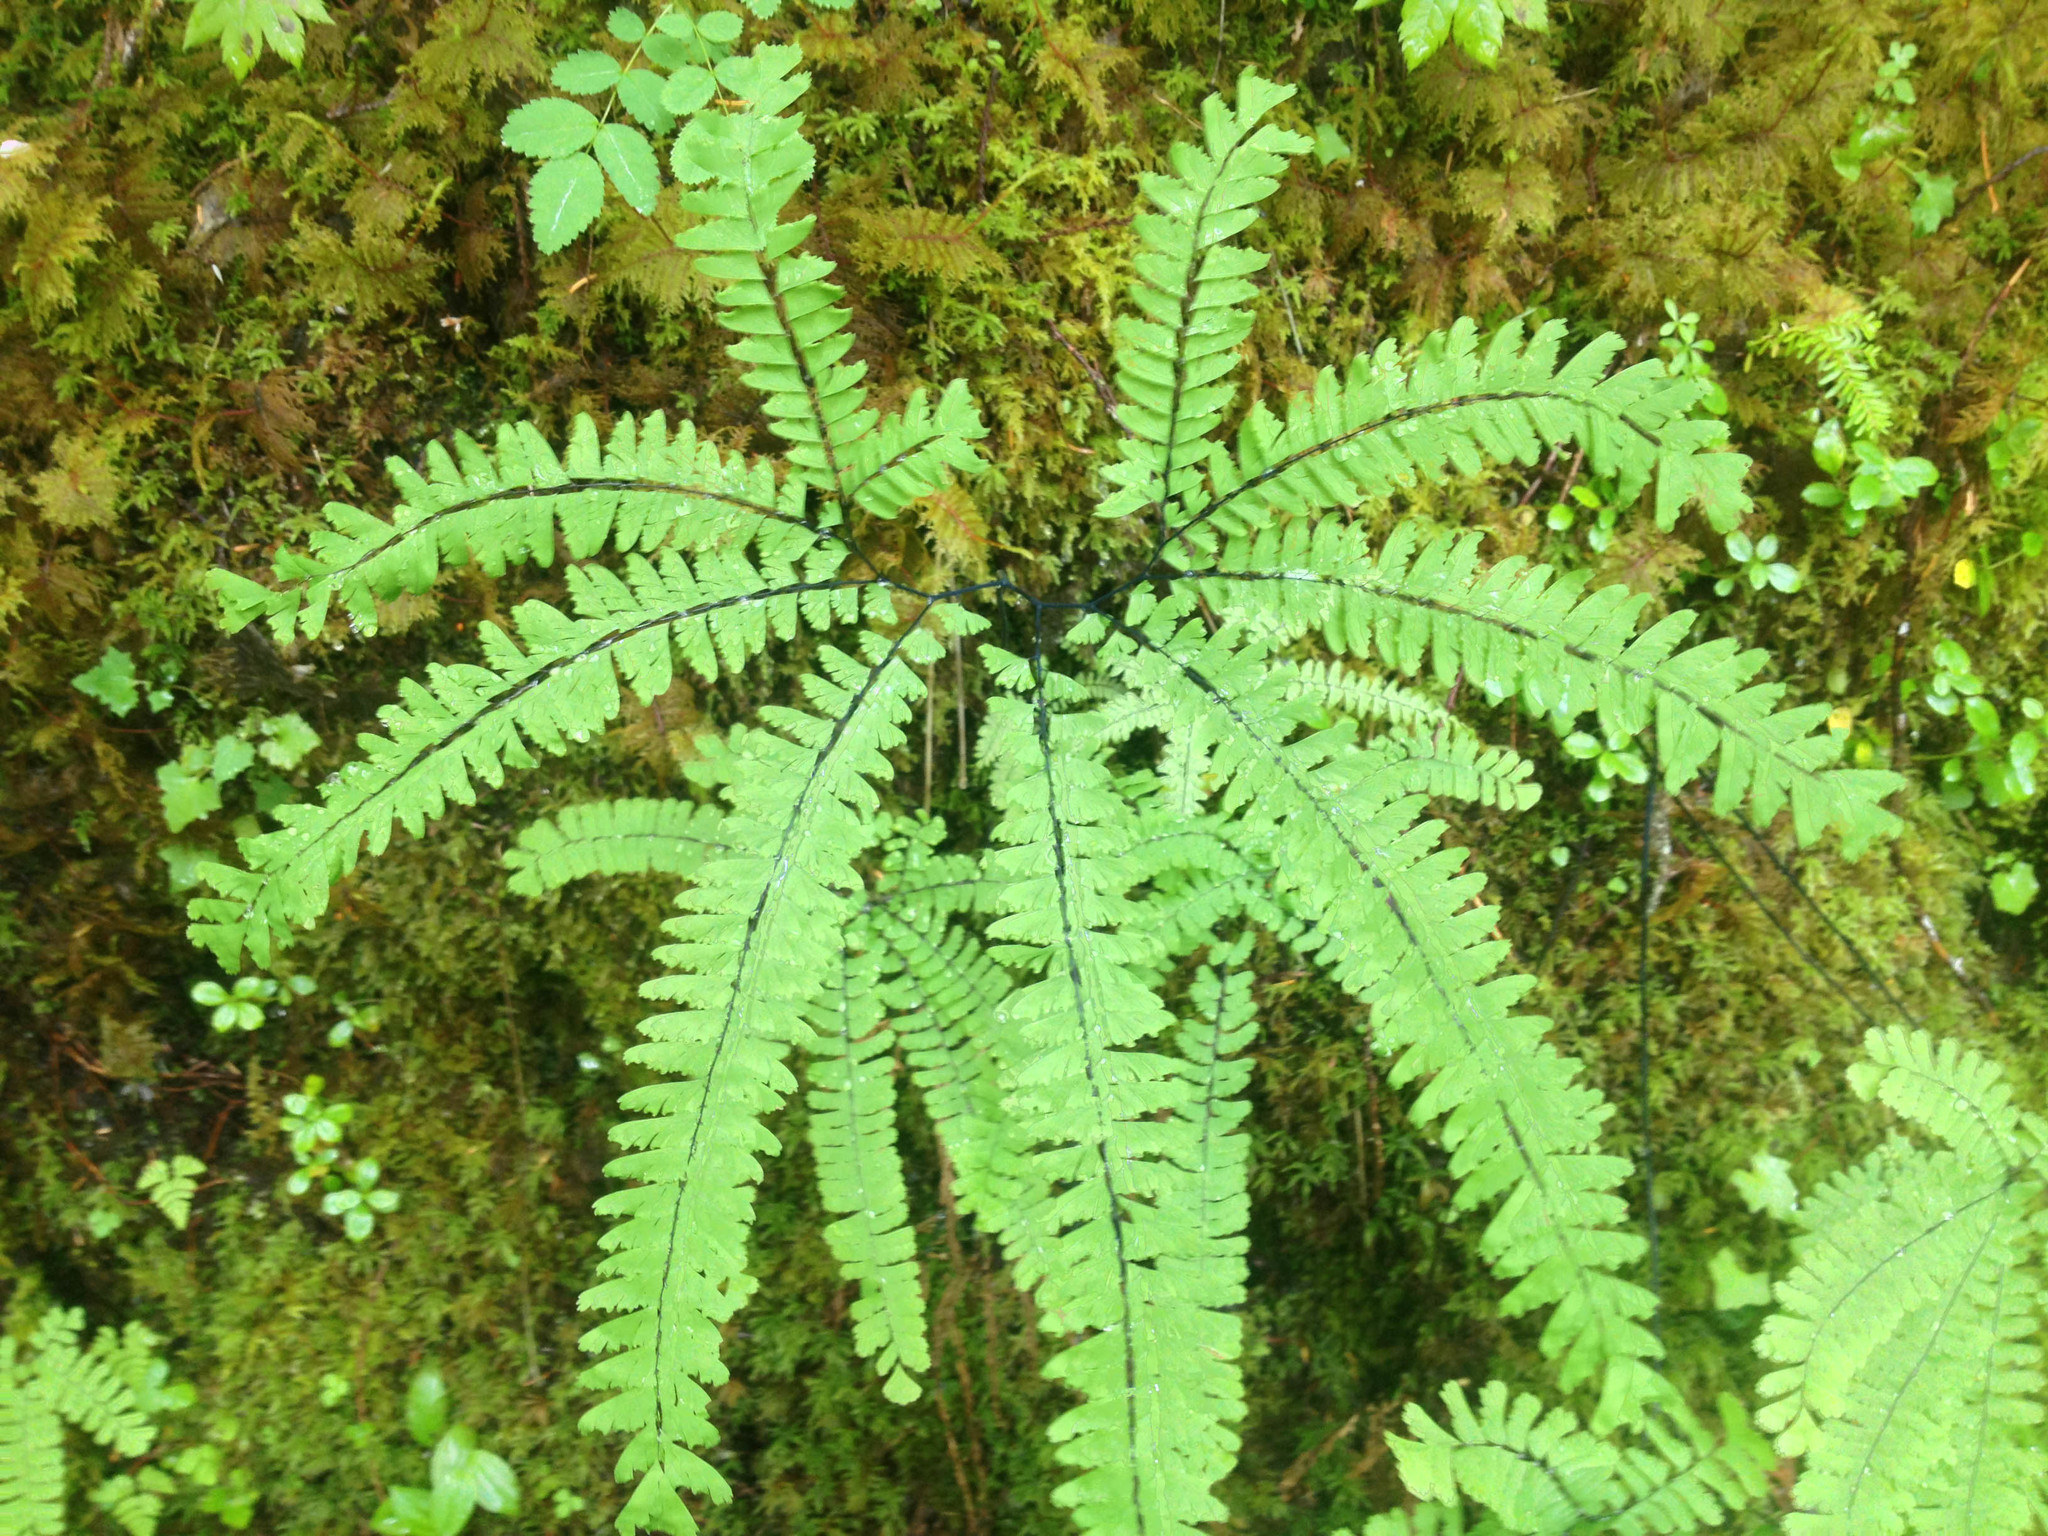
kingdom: Plantae
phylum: Tracheophyta
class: Polypodiopsida
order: Polypodiales
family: Pteridaceae
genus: Adiantum
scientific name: Adiantum aleuticum
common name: Aleutian maidenhair fern
